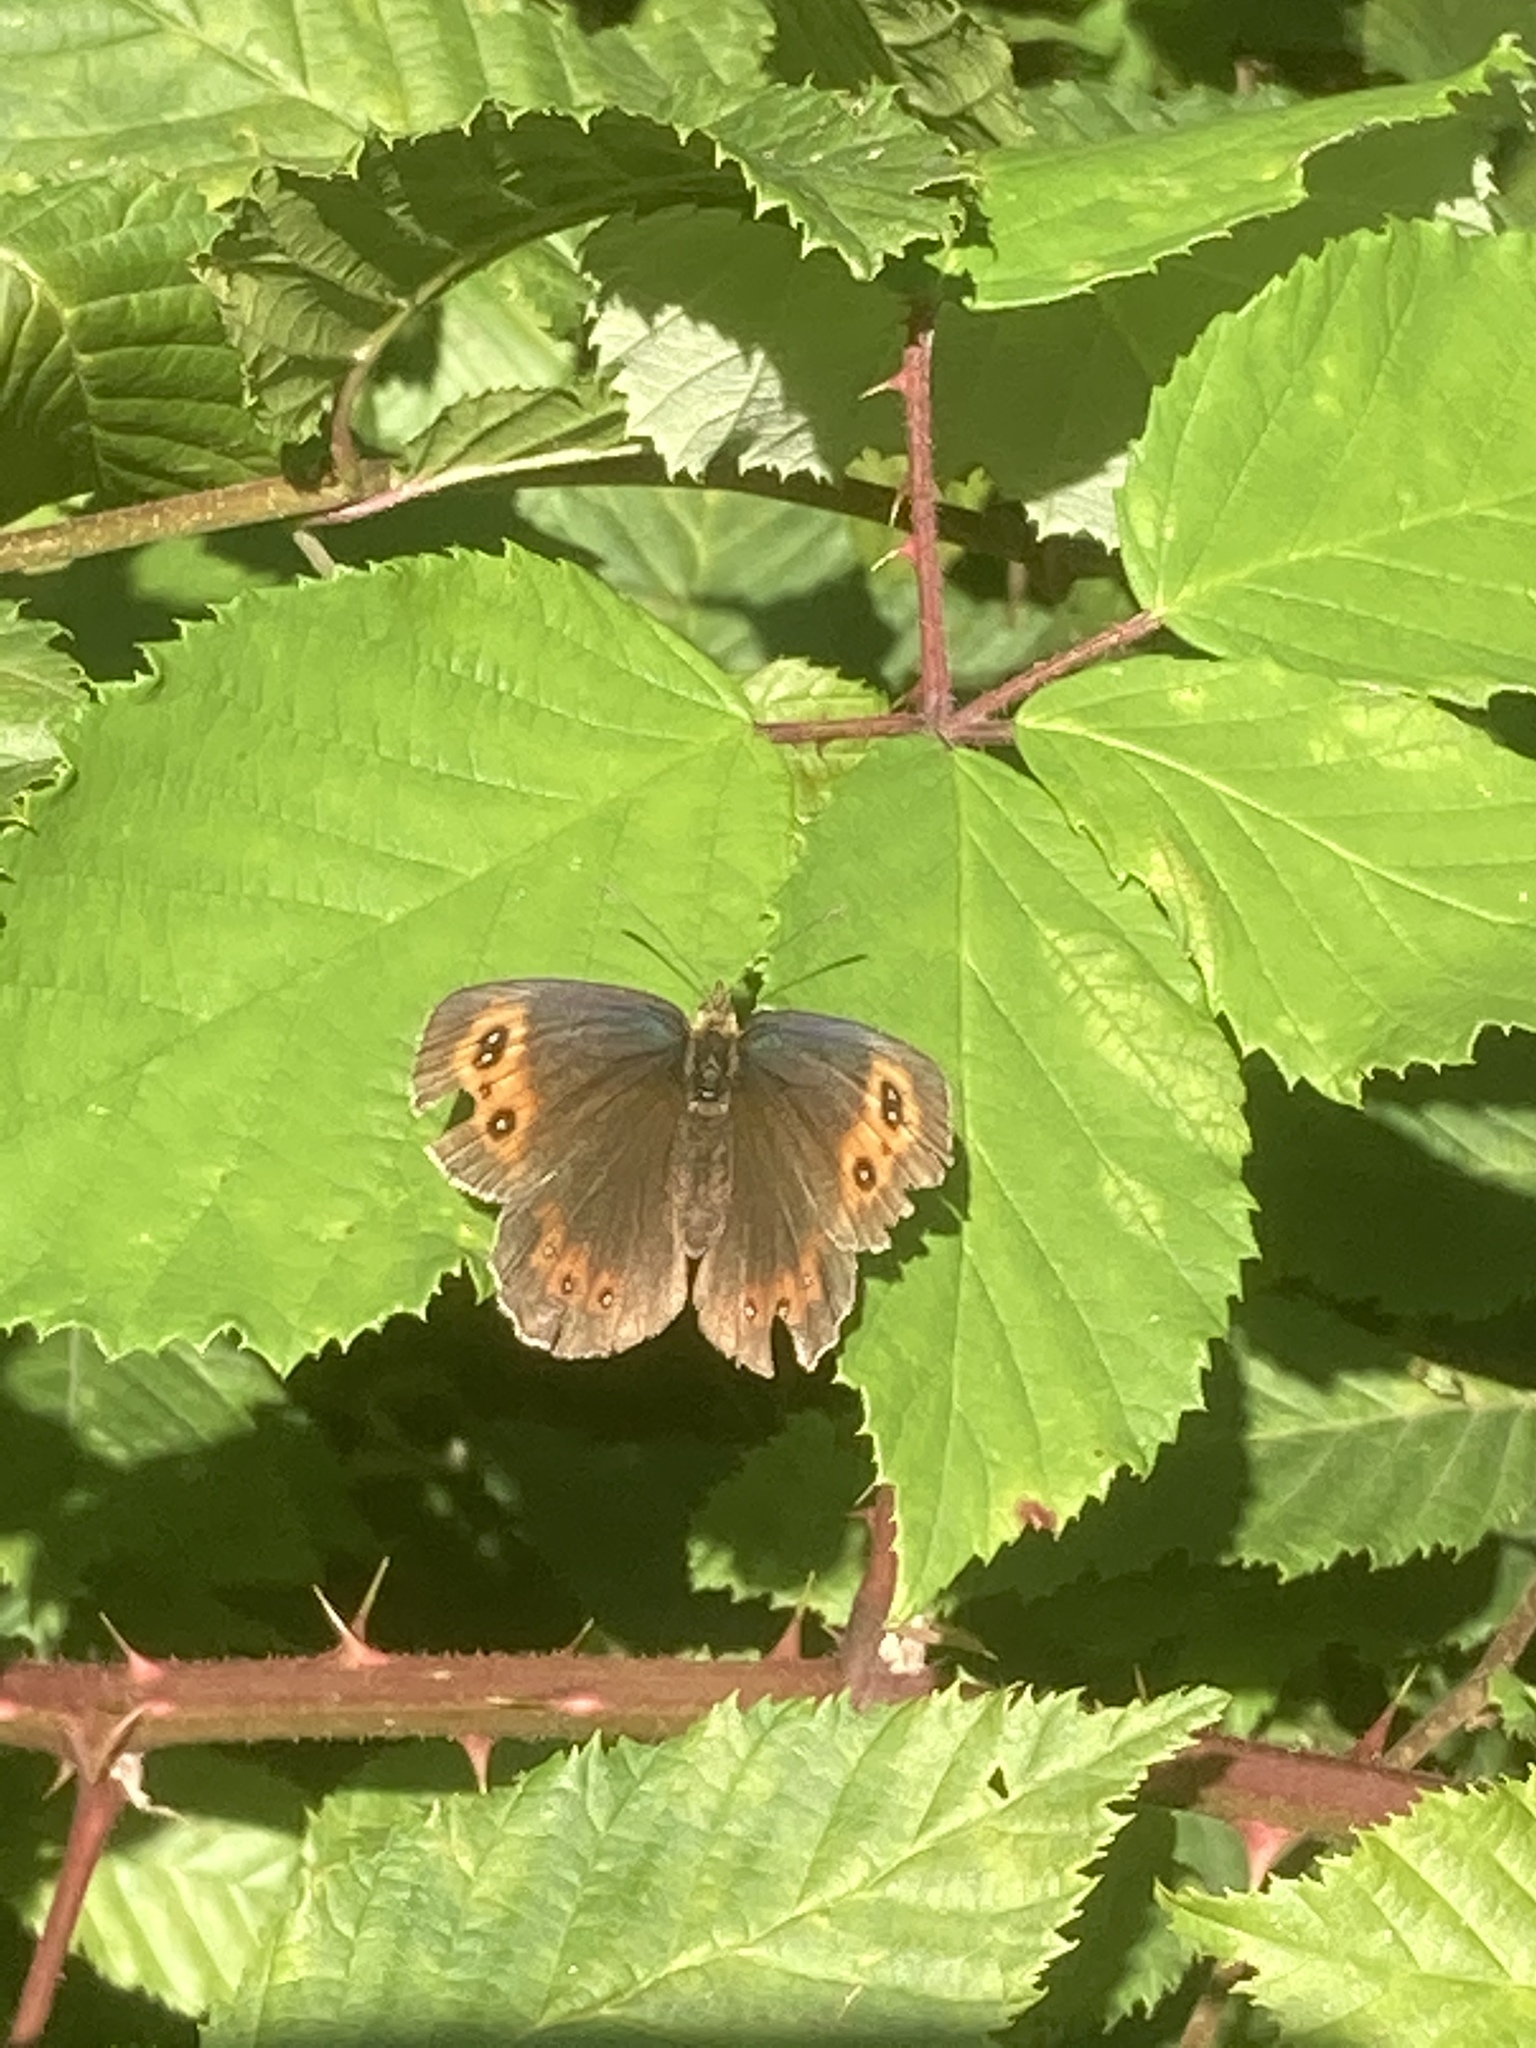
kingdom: Animalia
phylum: Arthropoda
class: Insecta
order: Lepidoptera
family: Nymphalidae
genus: Erebia
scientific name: Erebia aethiops
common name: Scotch argus
